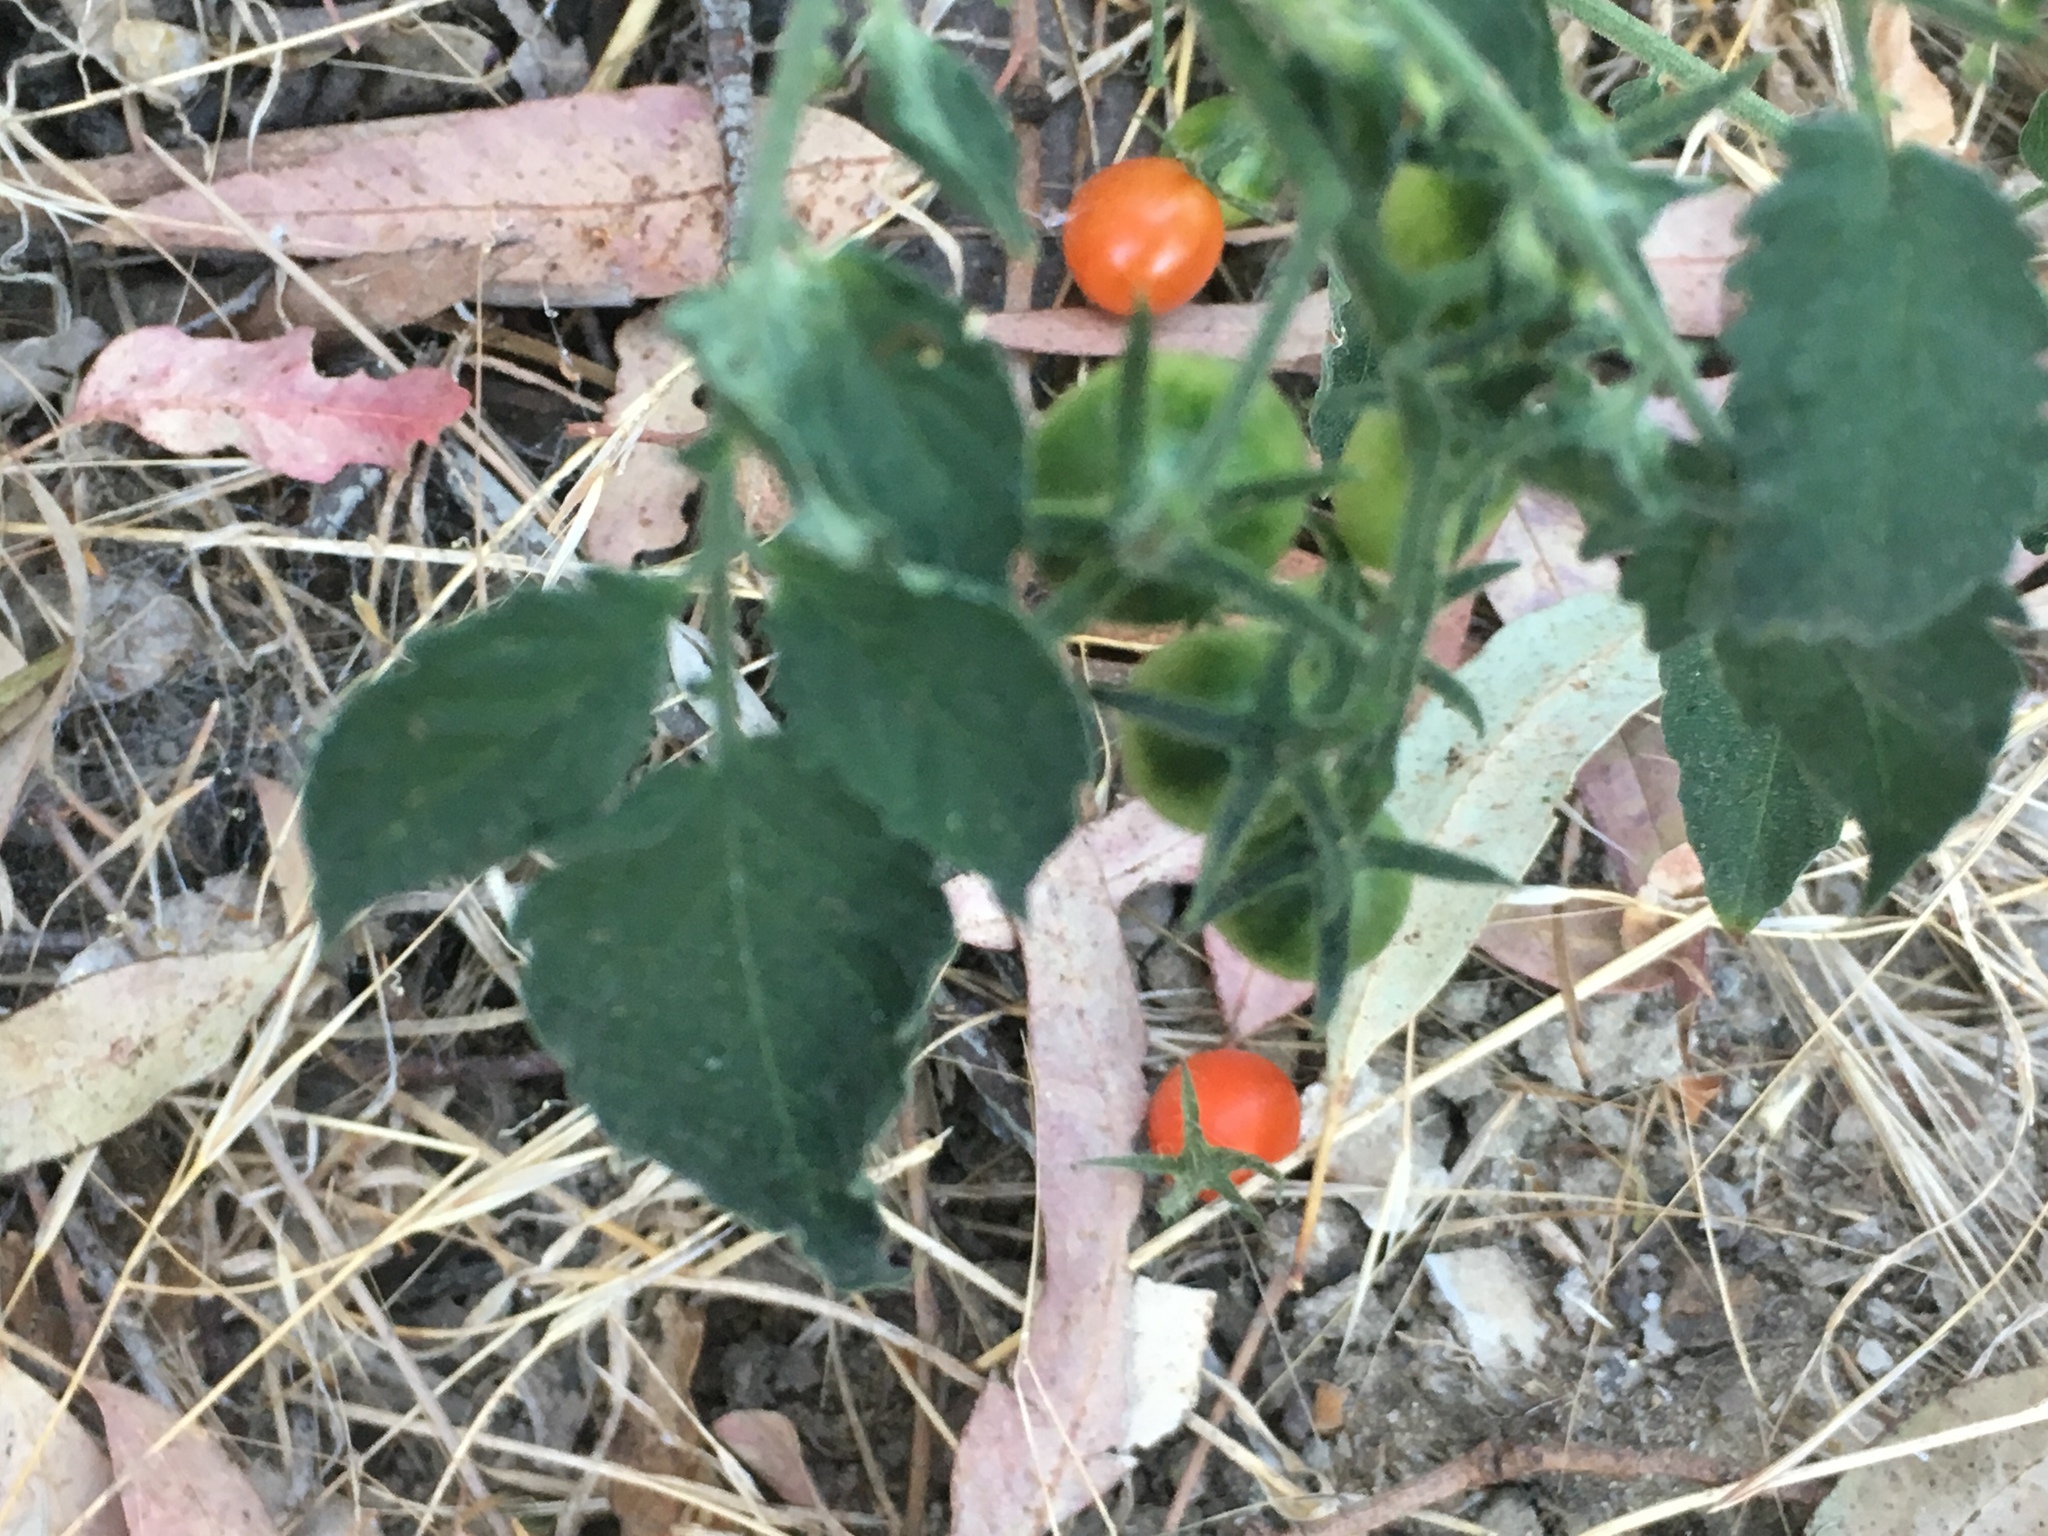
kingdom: Plantae
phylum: Tracheophyta
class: Magnoliopsida
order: Solanales
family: Solanaceae
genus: Solanum
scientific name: Solanum lycopersicum
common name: Garden tomato
